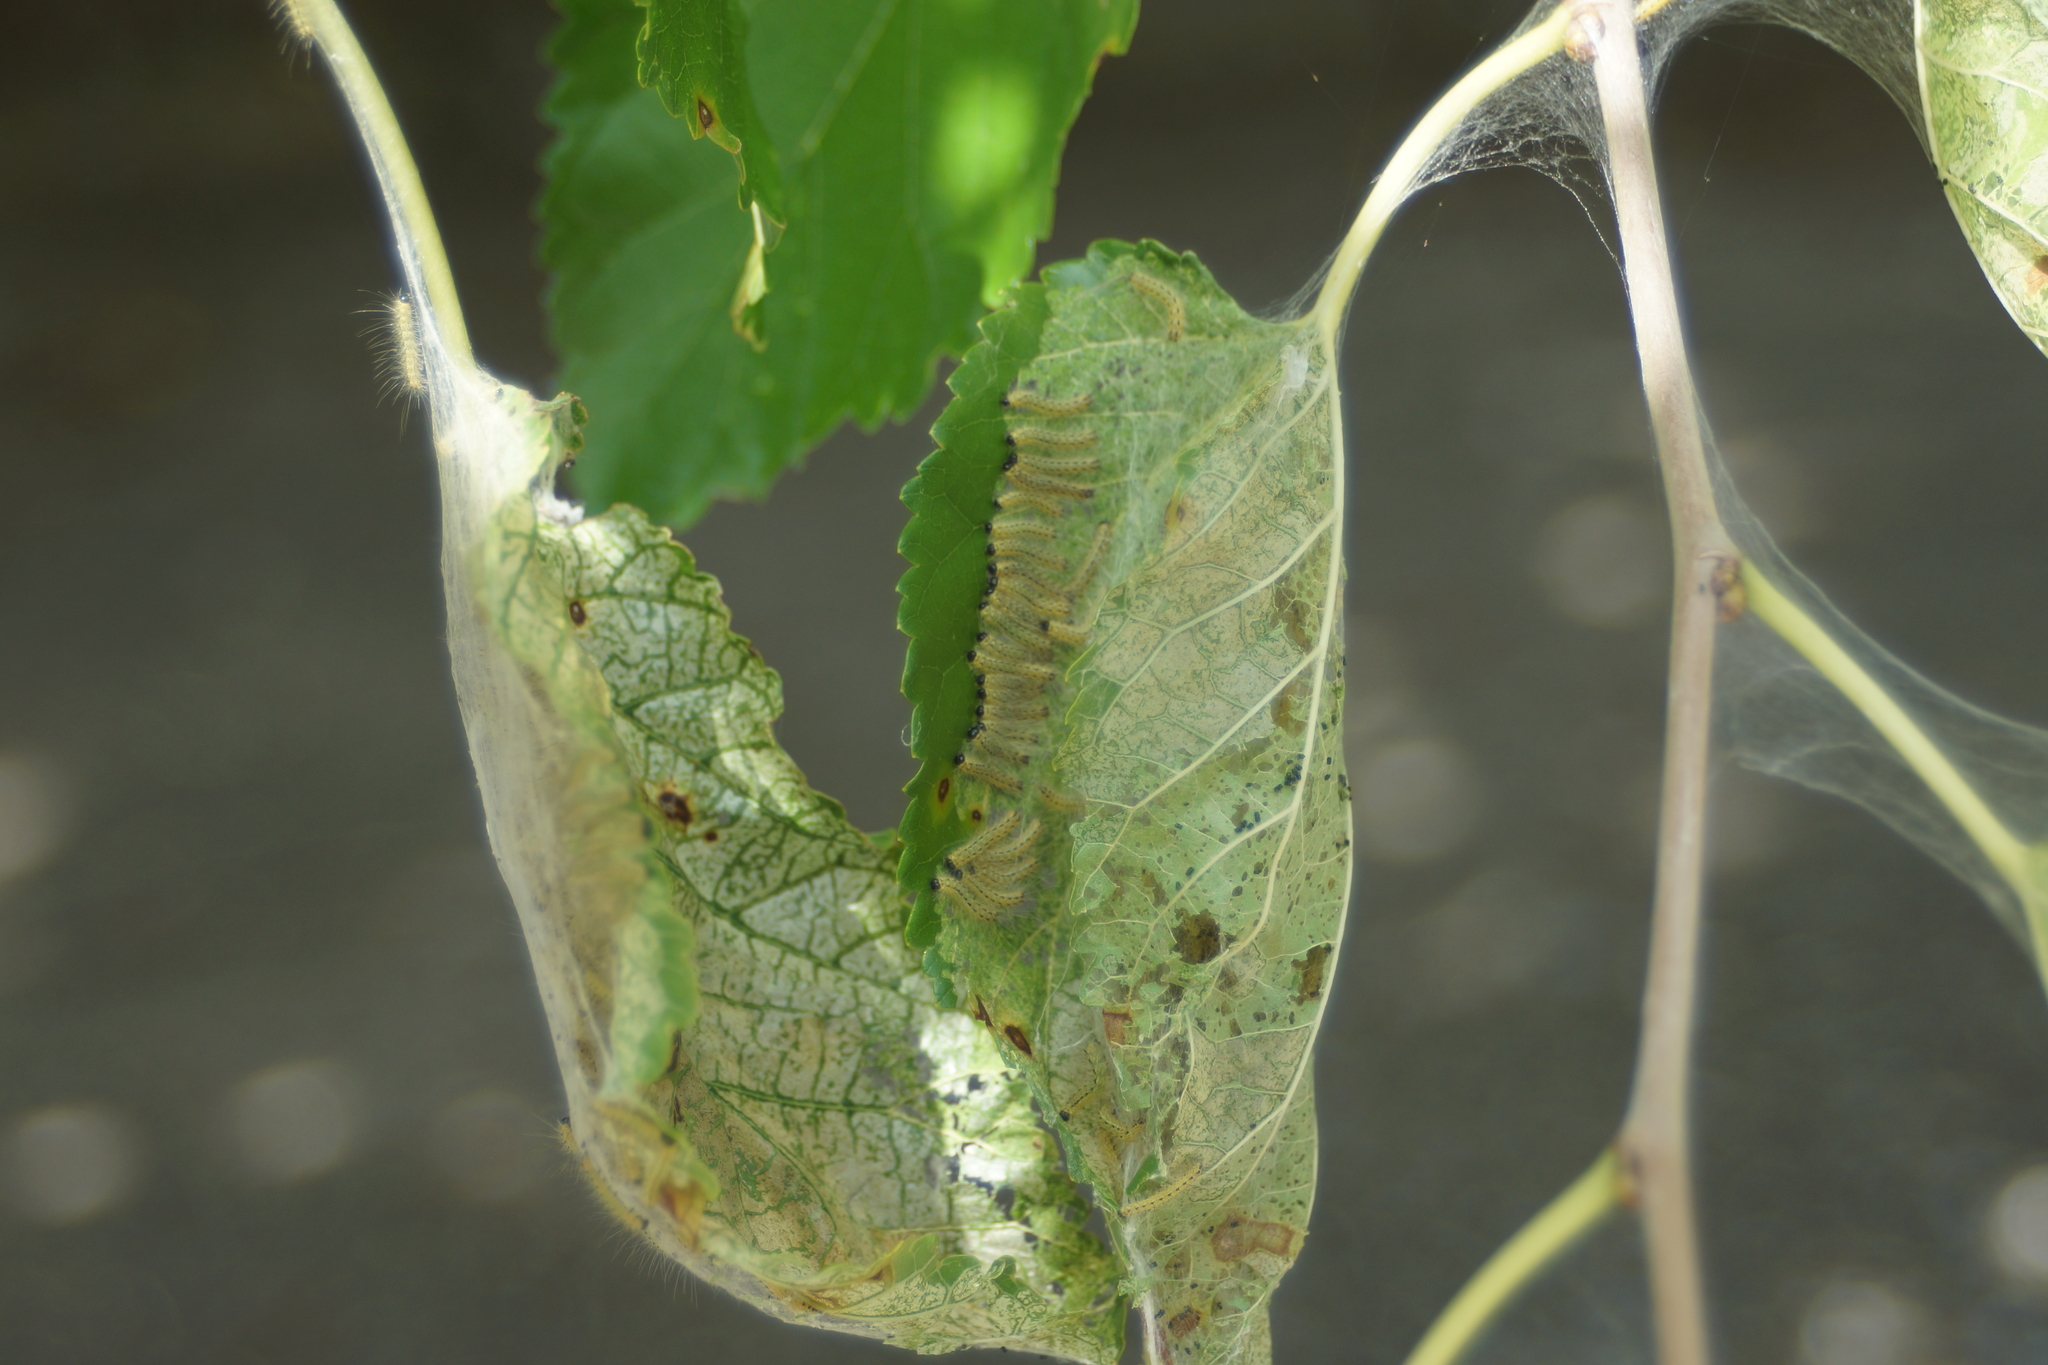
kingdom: Animalia
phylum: Arthropoda
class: Insecta
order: Lepidoptera
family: Erebidae
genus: Hyphantria
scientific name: Hyphantria cunea
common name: American white moth
